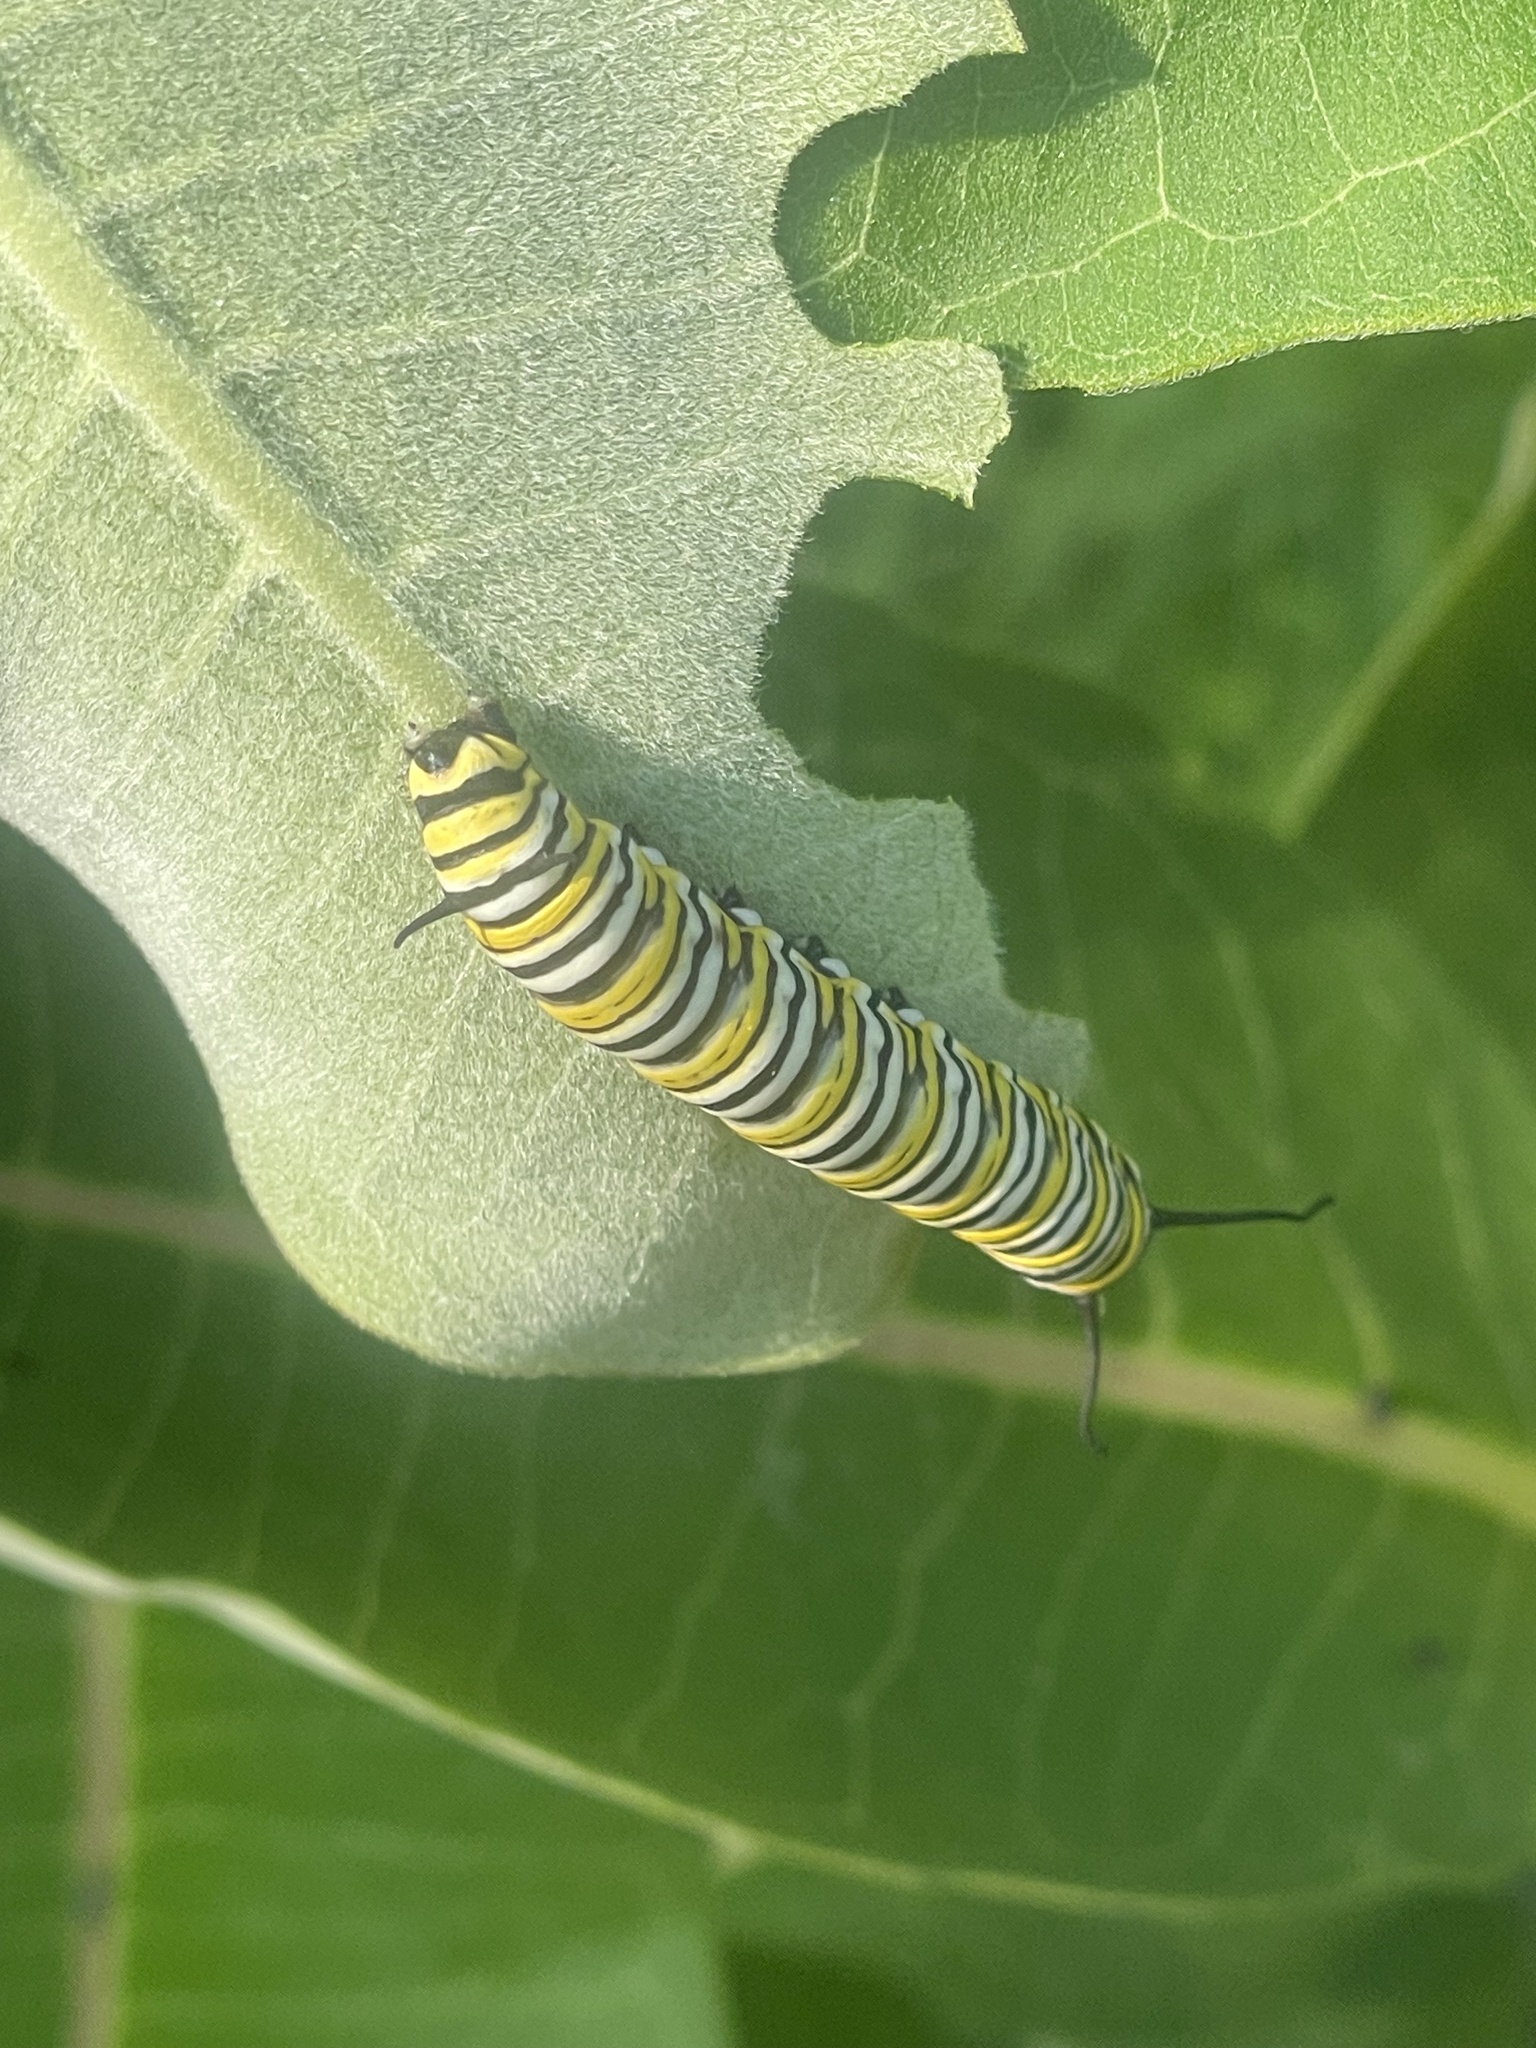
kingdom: Animalia
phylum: Arthropoda
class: Insecta
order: Lepidoptera
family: Nymphalidae
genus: Danaus
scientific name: Danaus plexippus
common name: Monarch
